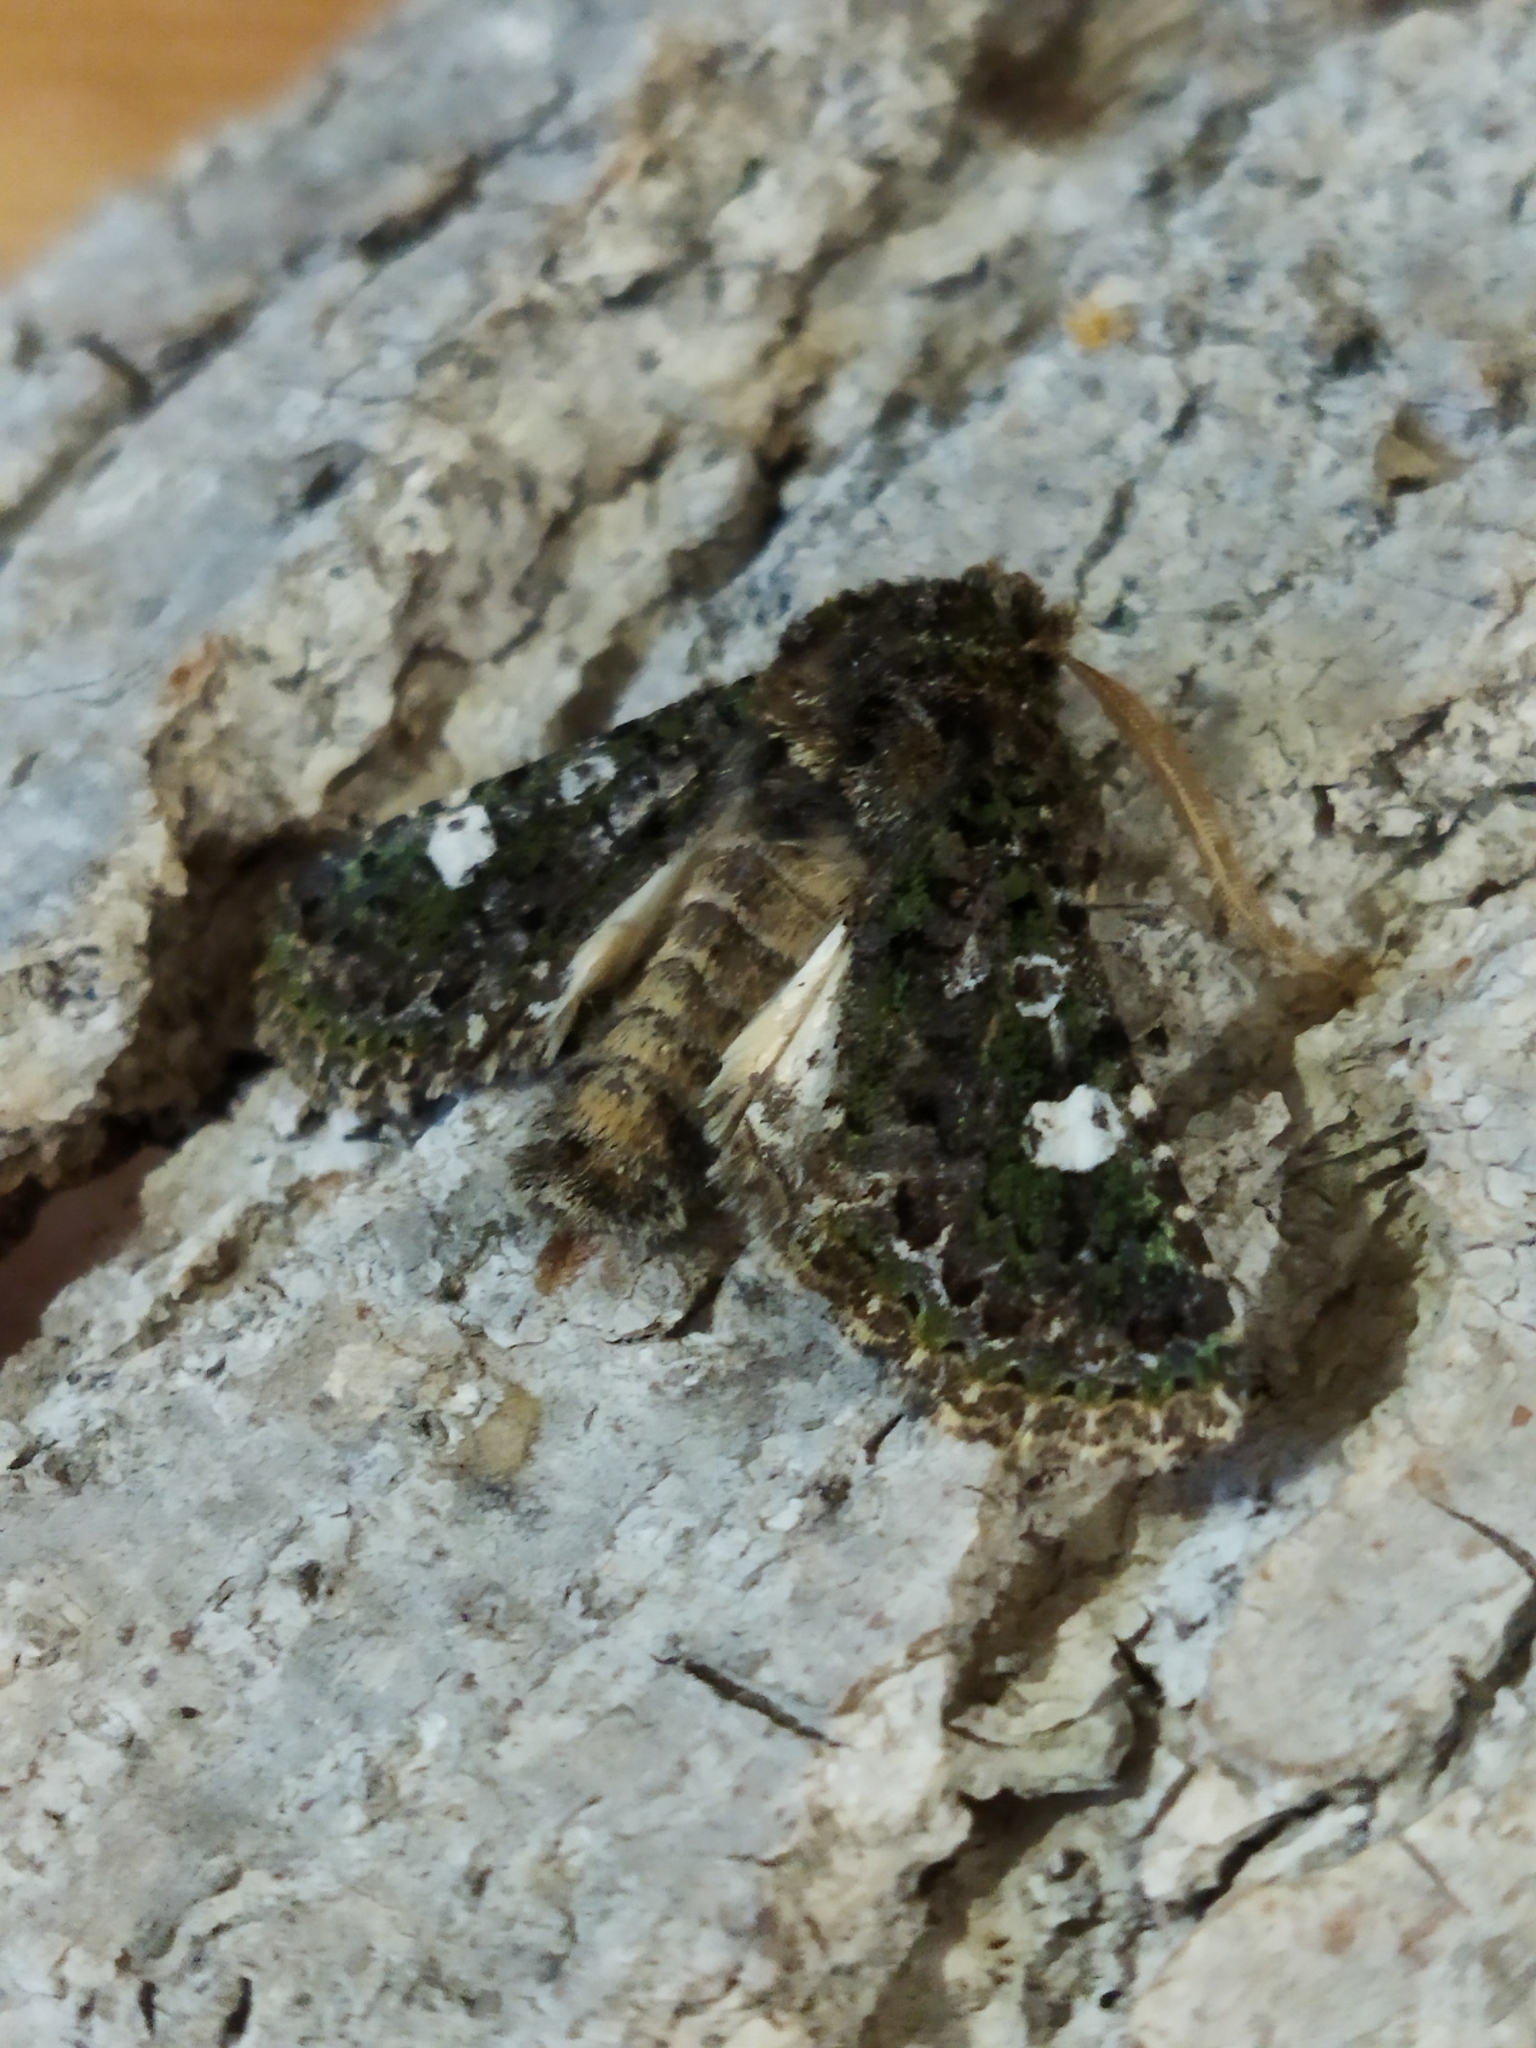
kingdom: Animalia
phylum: Arthropoda
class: Insecta
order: Lepidoptera
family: Noctuidae
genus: Valeria
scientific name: Valeria oleagina
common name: Green-brindled dot
